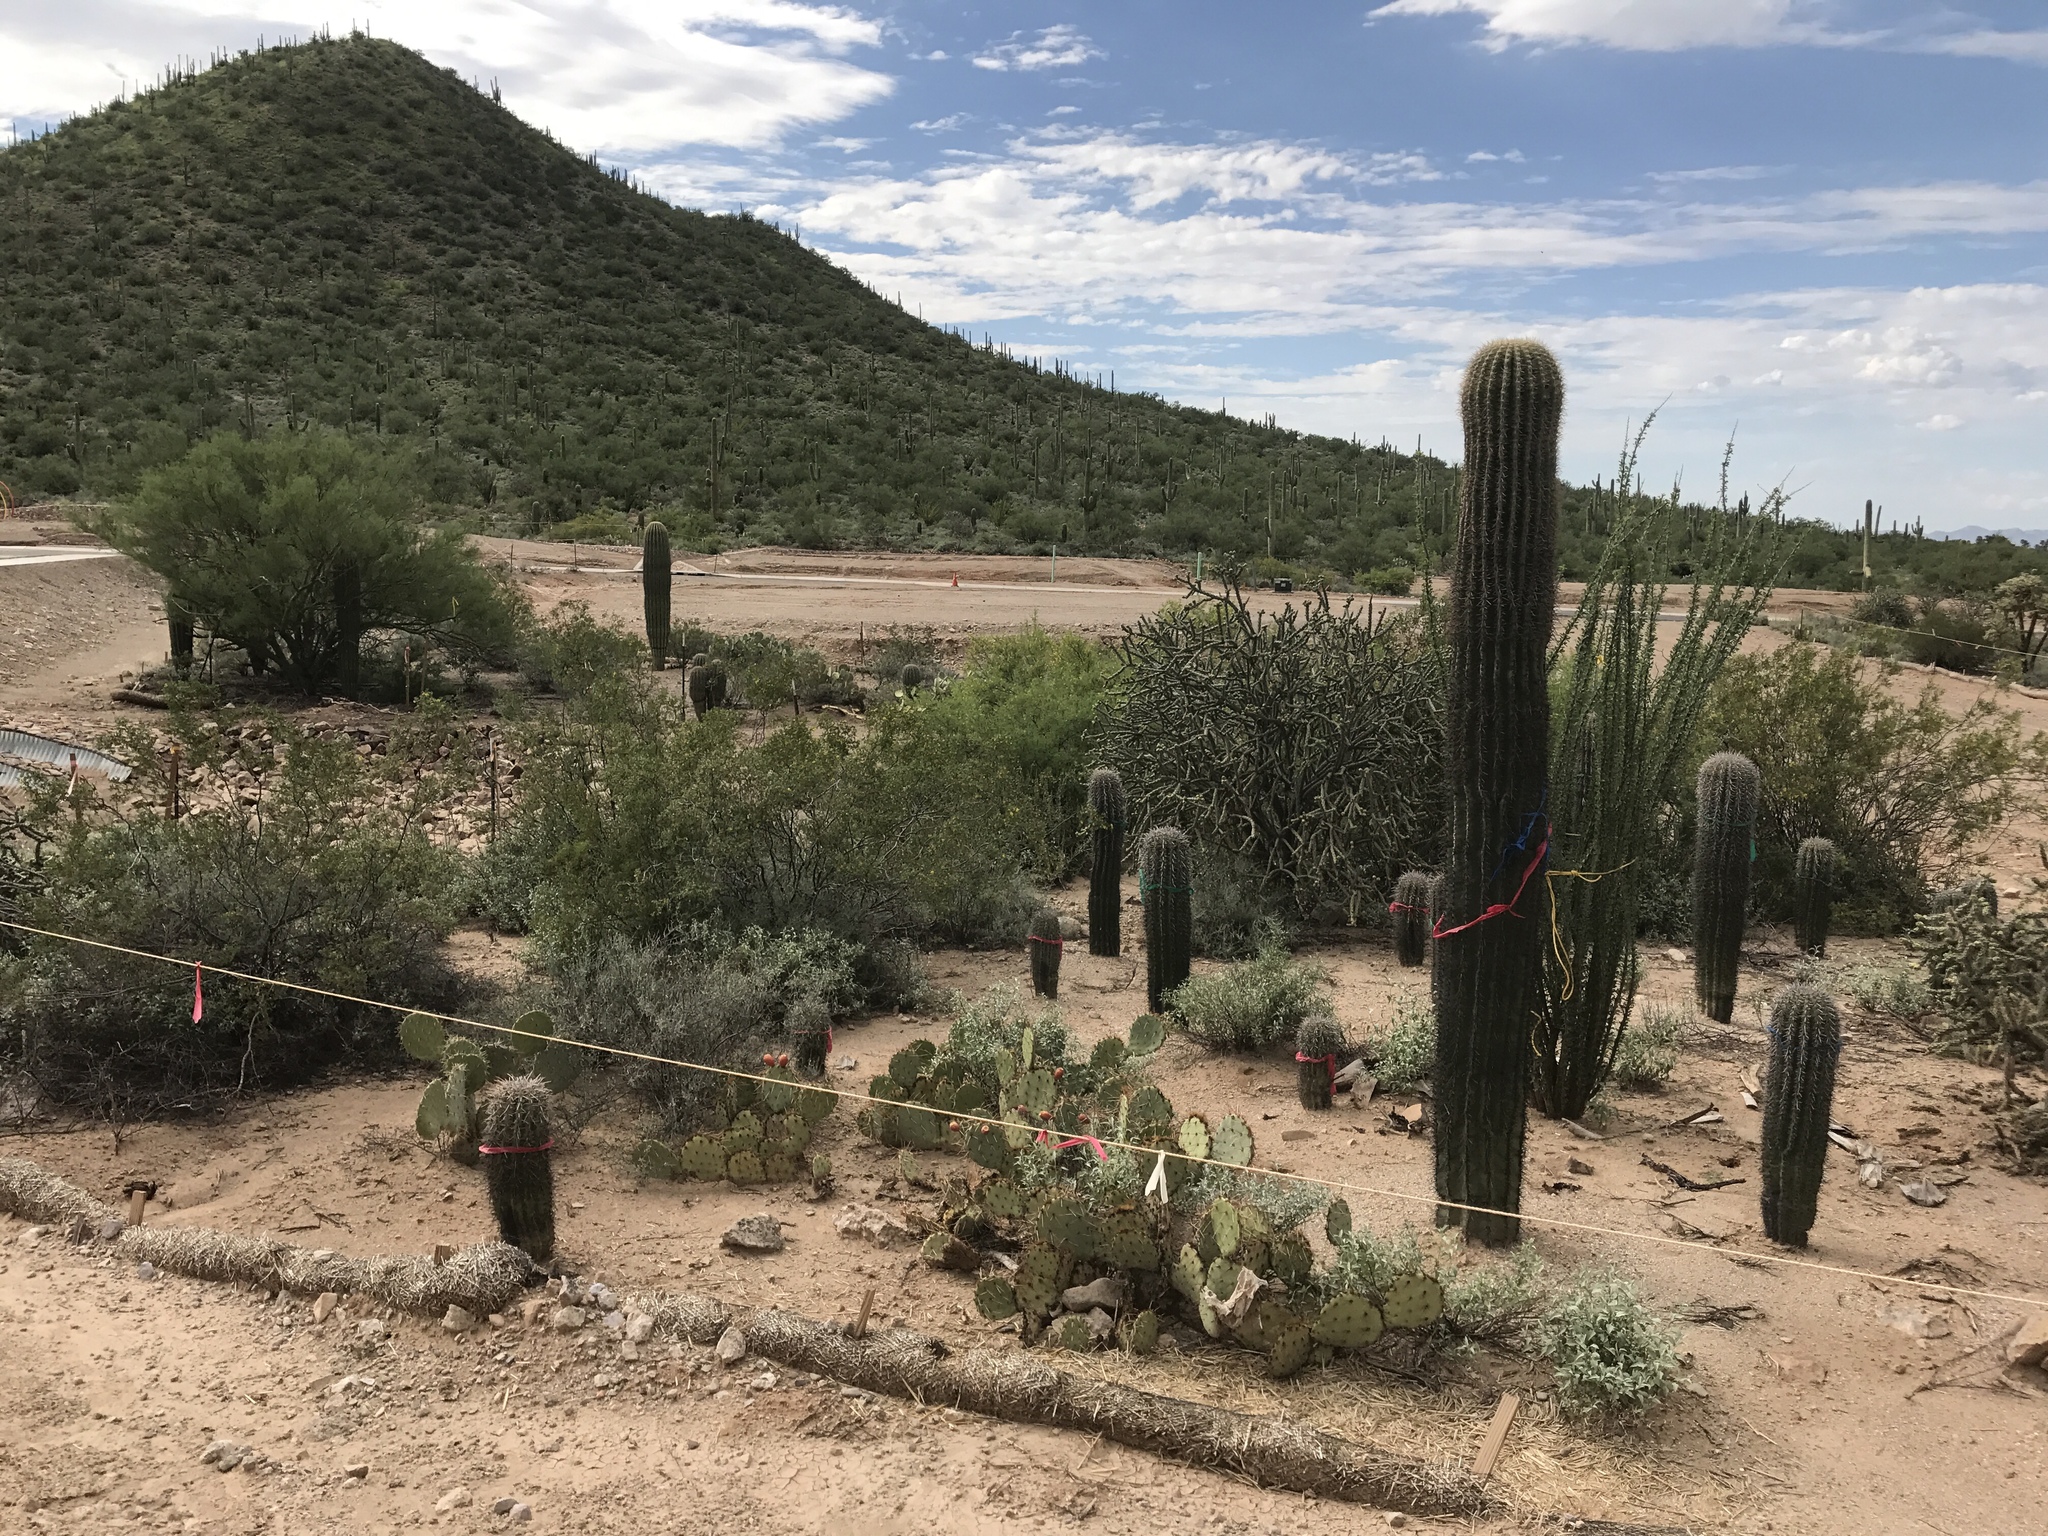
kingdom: Plantae
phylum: Tracheophyta
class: Magnoliopsida
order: Caryophyllales
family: Cactaceae
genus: Carnegiea
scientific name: Carnegiea gigantea
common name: Saguaro
